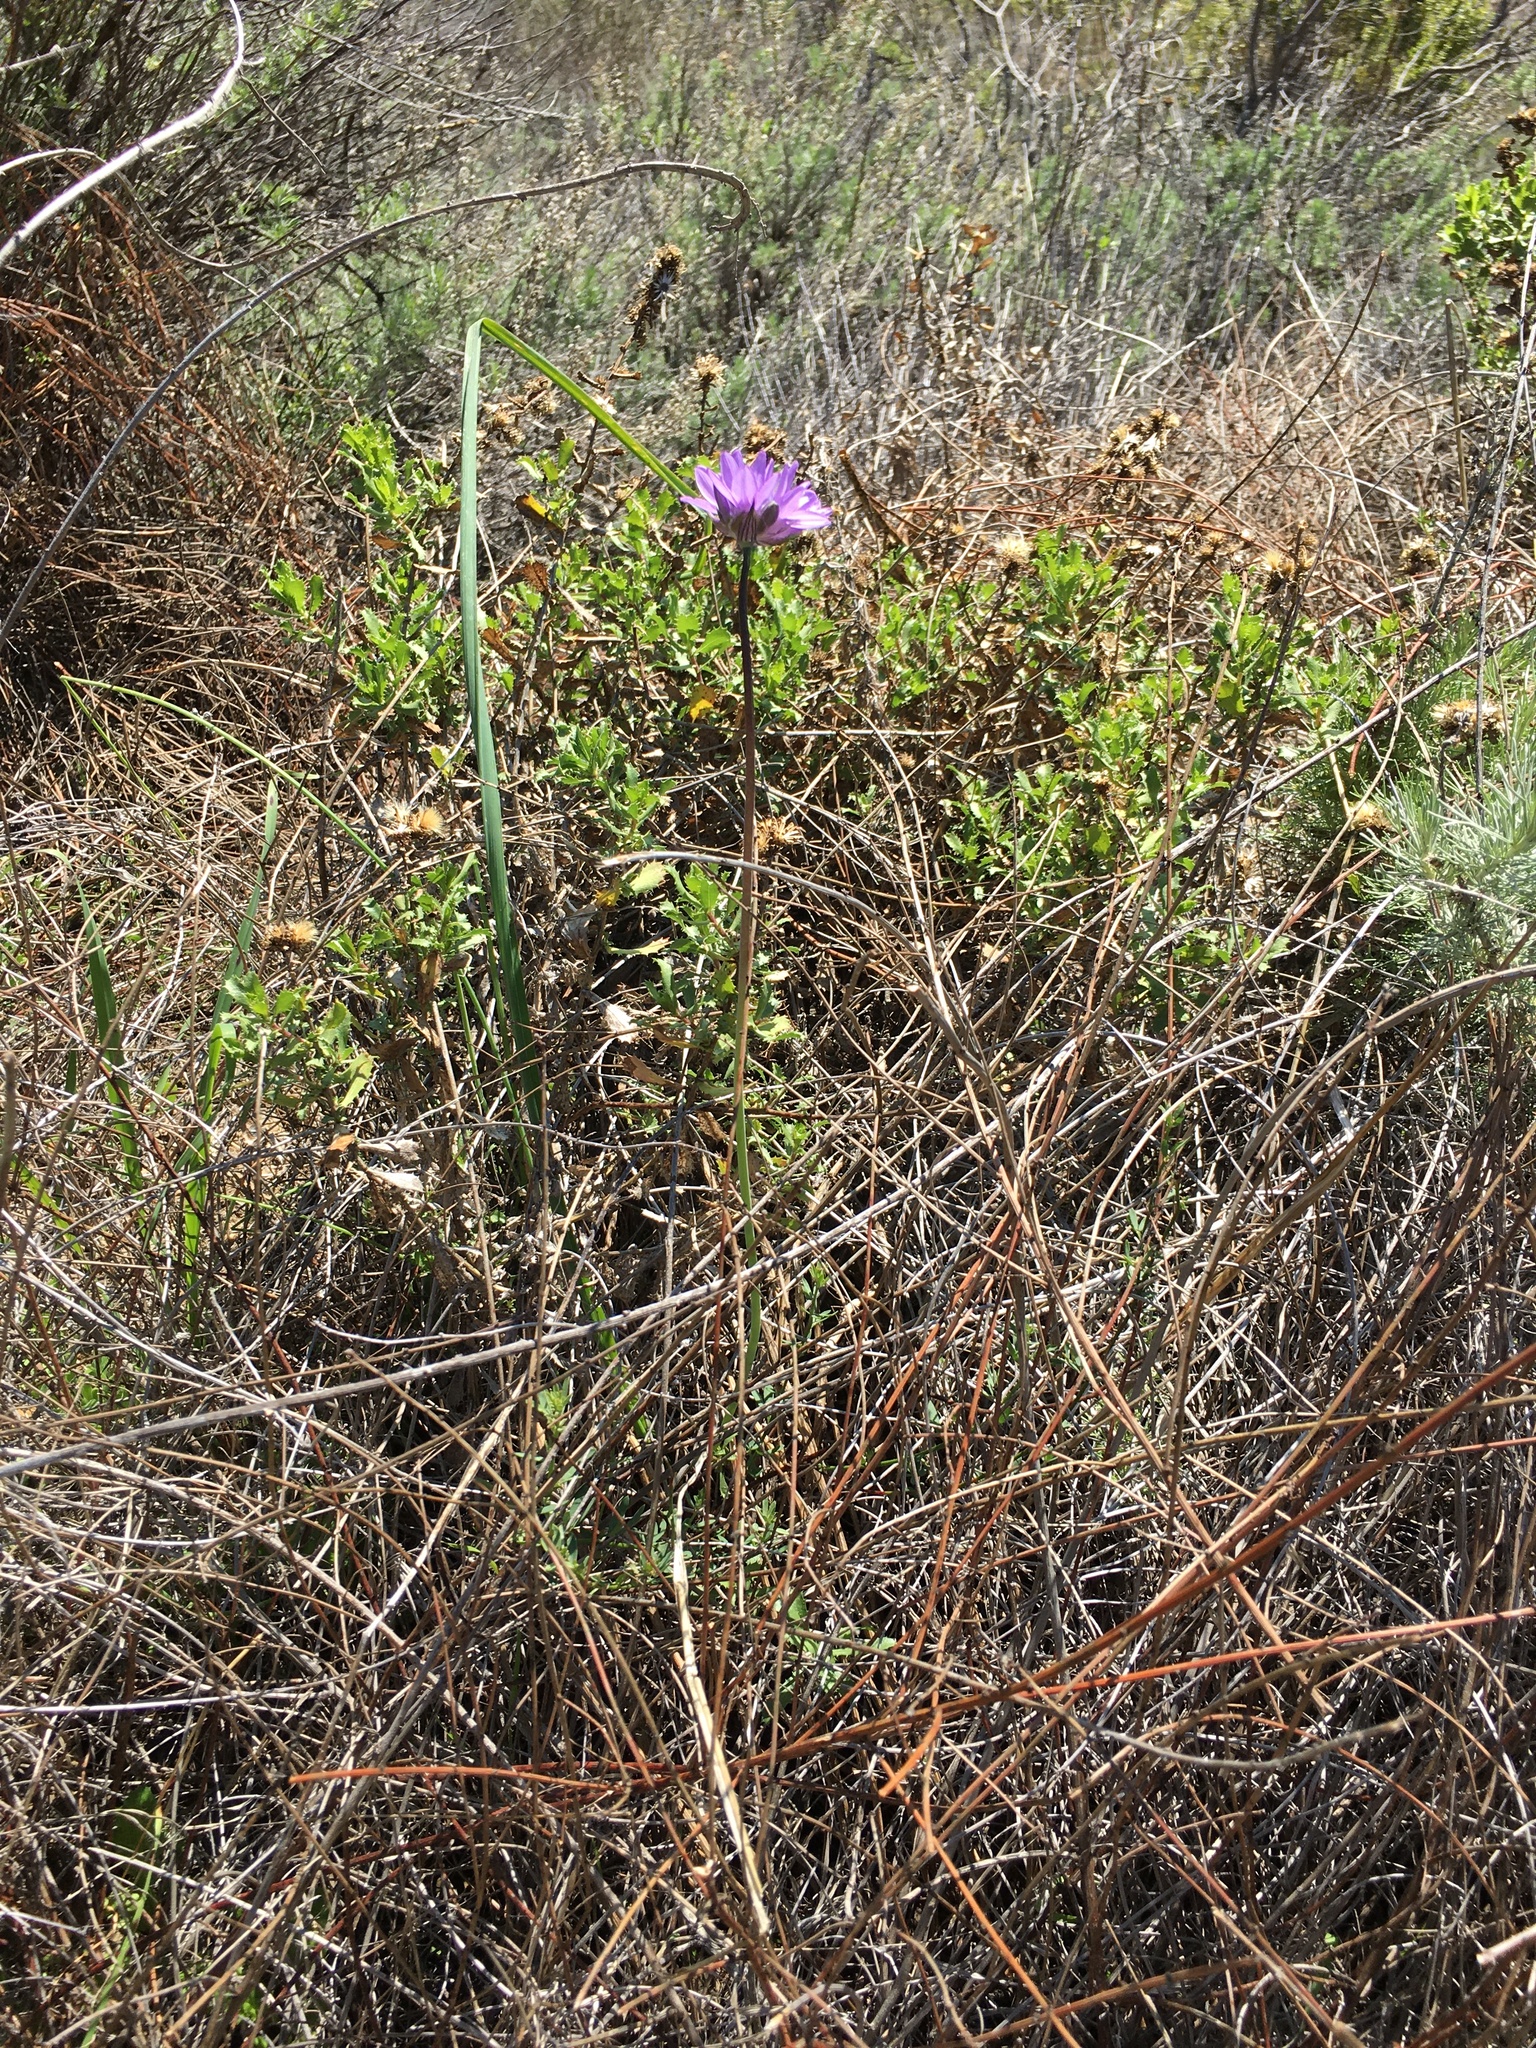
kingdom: Plantae
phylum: Tracheophyta
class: Liliopsida
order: Asparagales
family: Asparagaceae
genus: Dipterostemon
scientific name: Dipterostemon capitatus
